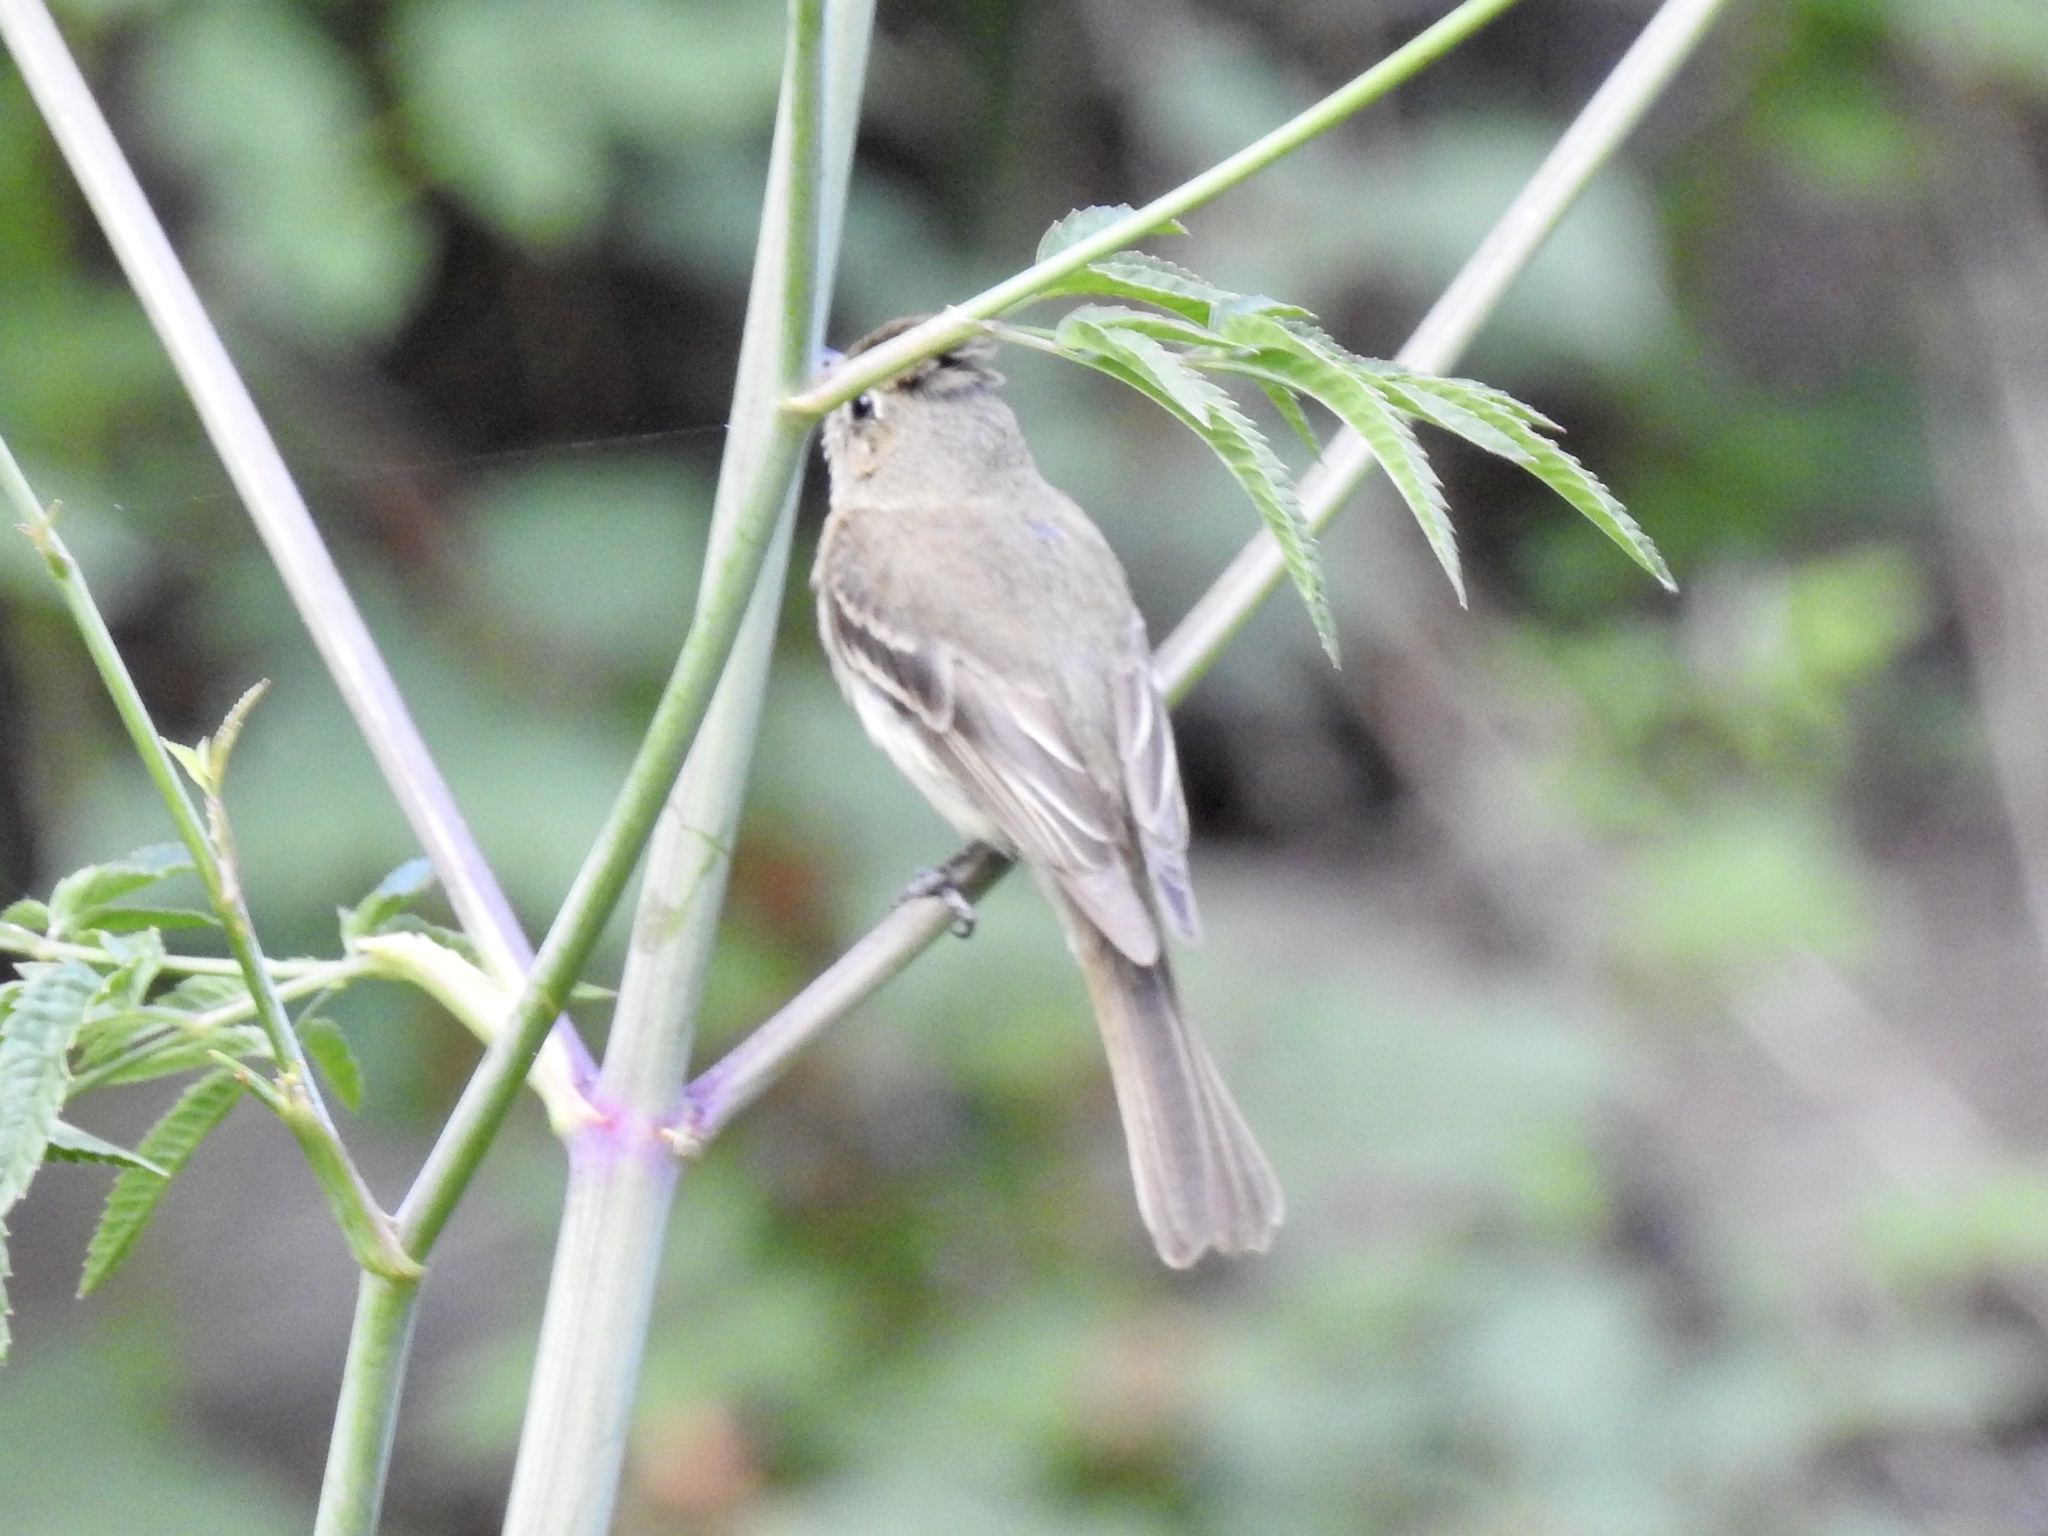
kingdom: Animalia
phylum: Chordata
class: Aves
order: Passeriformes
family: Tyrannidae
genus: Empidonax
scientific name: Empidonax difficilis
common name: Pacific-slope flycatcher
